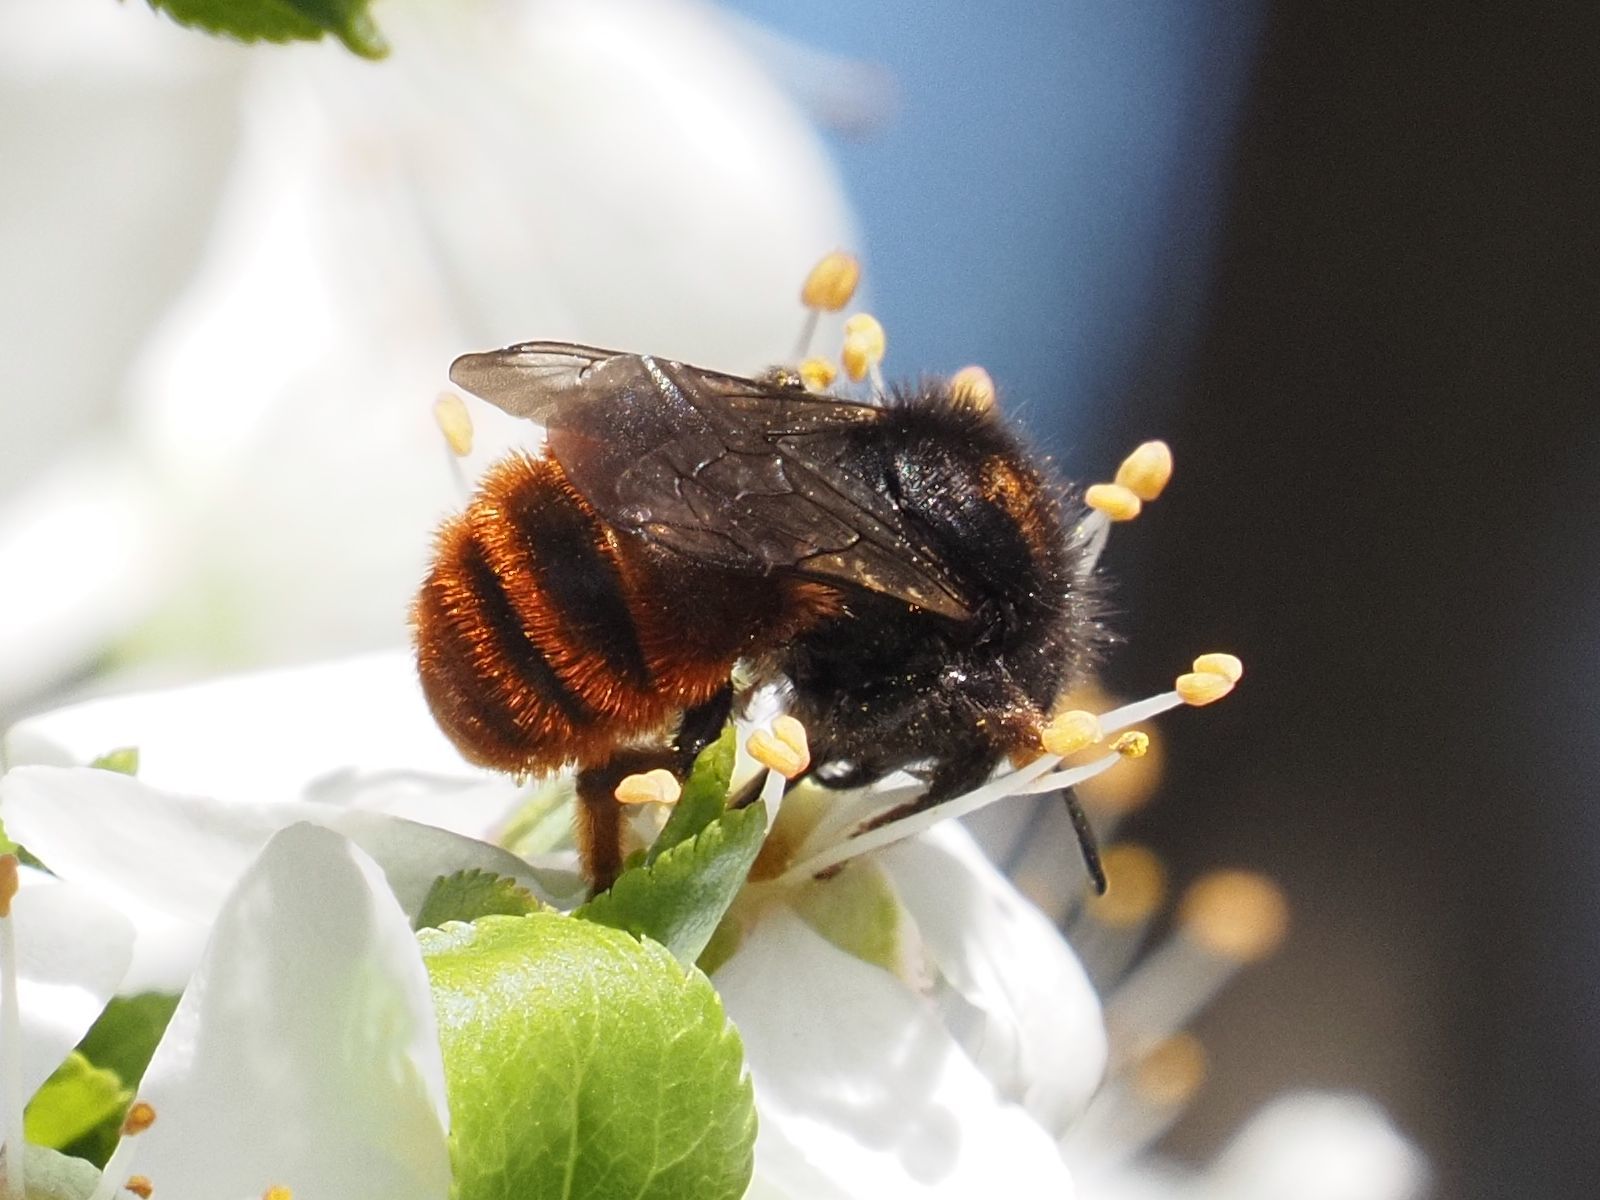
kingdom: Animalia
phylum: Arthropoda
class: Insecta
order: Hymenoptera
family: Megachilidae
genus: Osmia
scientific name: Osmia bicolor
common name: Red-tailed mason bee
